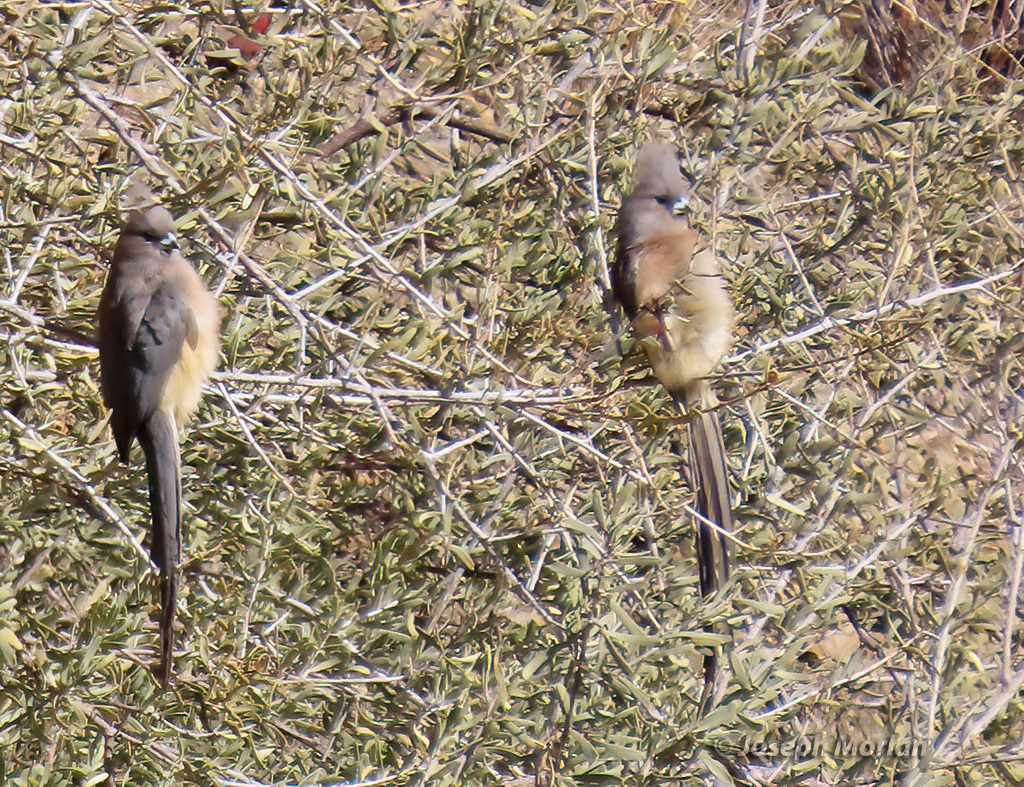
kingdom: Animalia
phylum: Chordata
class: Aves
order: Coliiformes
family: Coliidae
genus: Colius
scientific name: Colius colius
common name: White-backed mousebird
